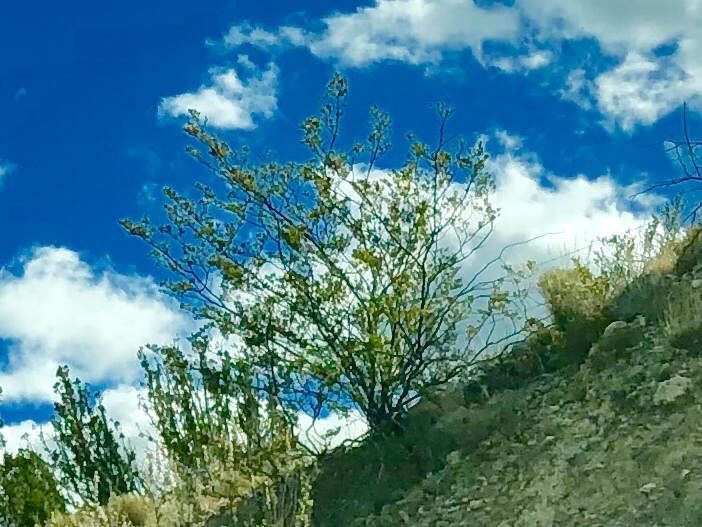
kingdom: Plantae
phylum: Tracheophyta
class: Magnoliopsida
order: Zygophyllales
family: Zygophyllaceae
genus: Larrea
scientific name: Larrea tridentata
